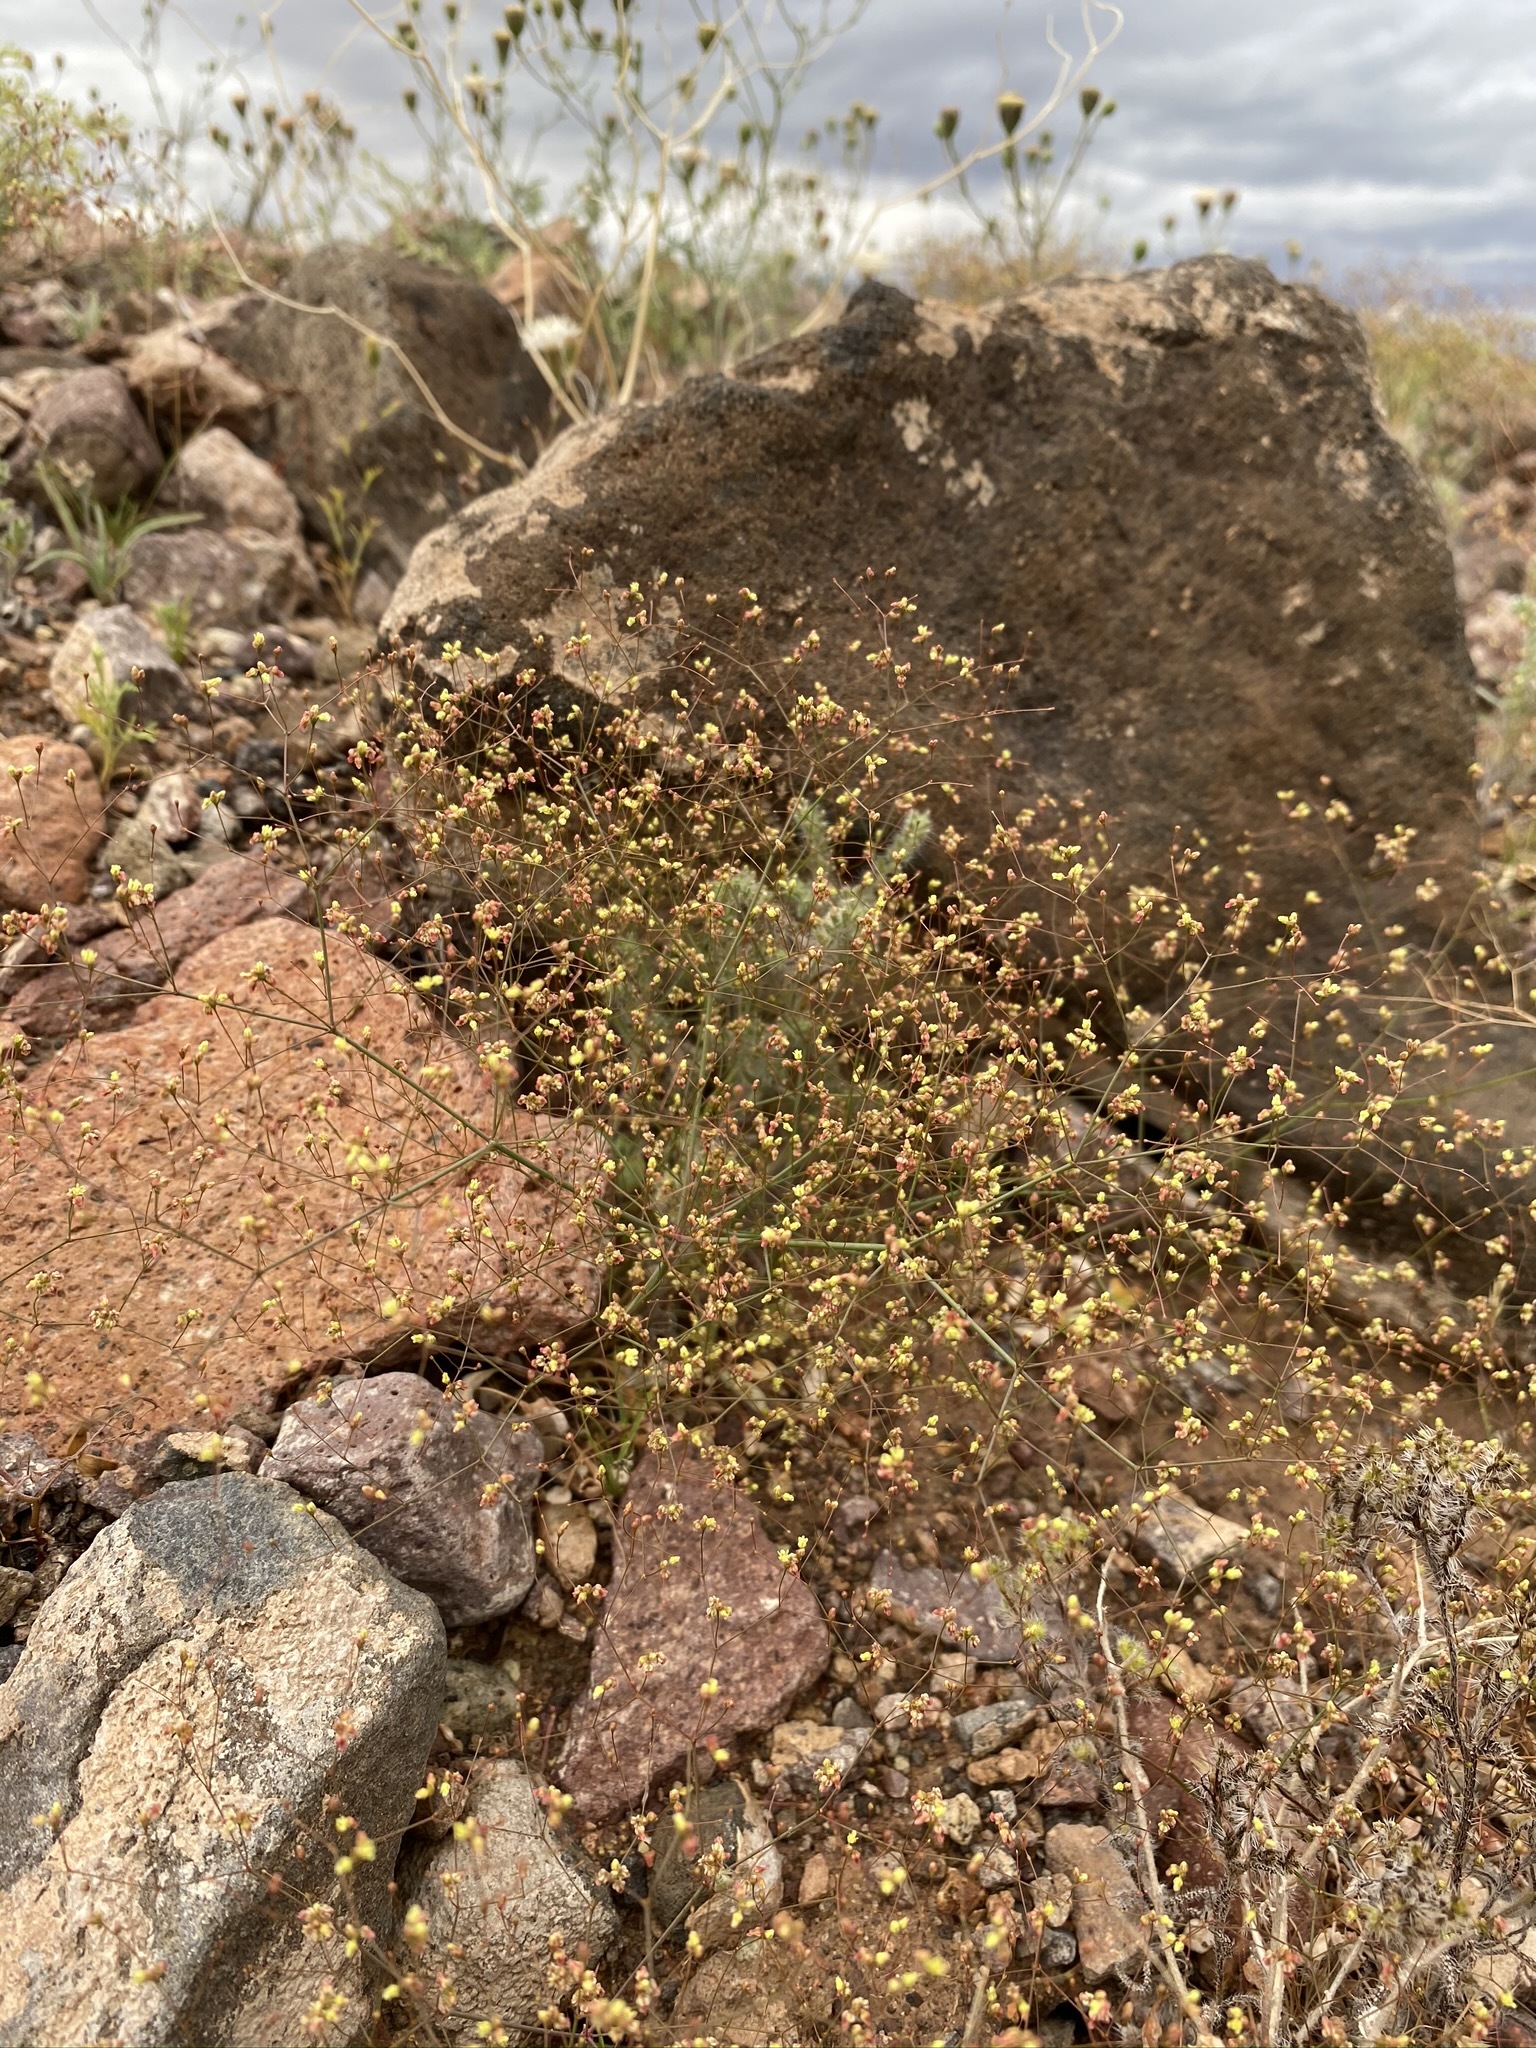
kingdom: Plantae
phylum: Tracheophyta
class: Magnoliopsida
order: Caryophyllales
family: Polygonaceae
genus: Eriogonum
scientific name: Eriogonum thomasii
